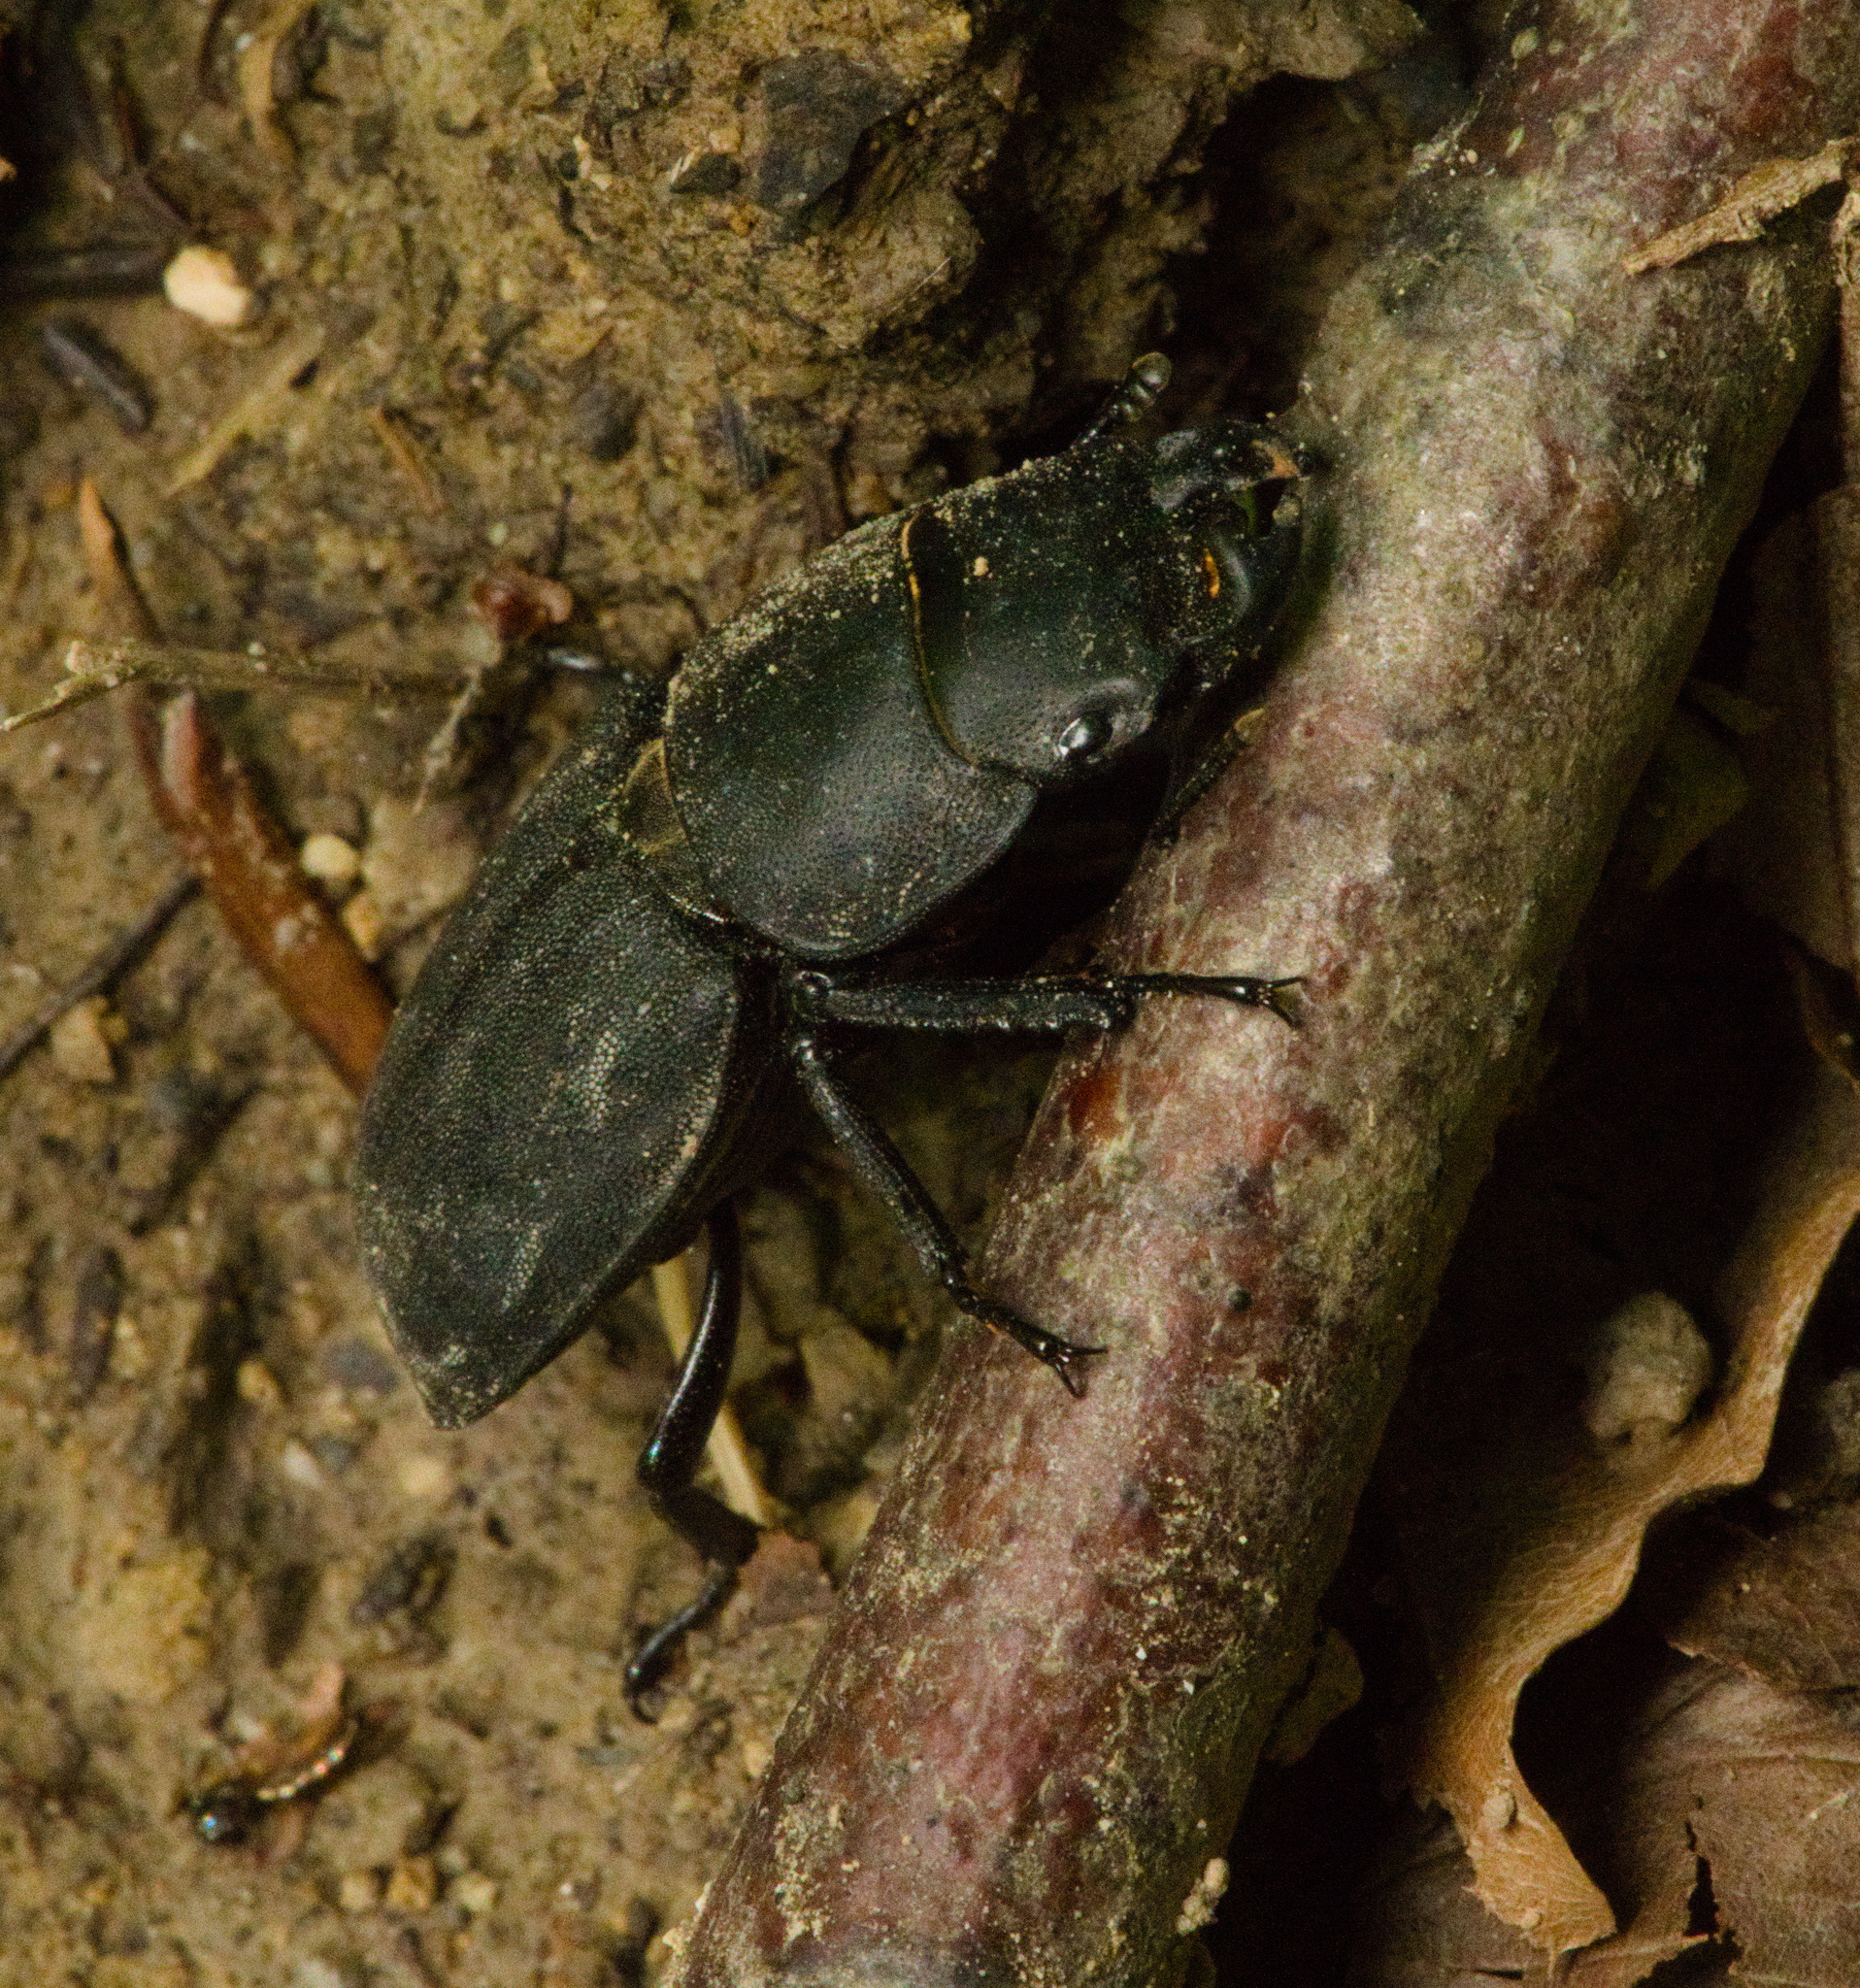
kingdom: Animalia
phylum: Arthropoda
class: Insecta
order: Coleoptera
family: Lucanidae
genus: Dorcus
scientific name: Dorcus parallelipipedus
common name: Lesser stag beetle
